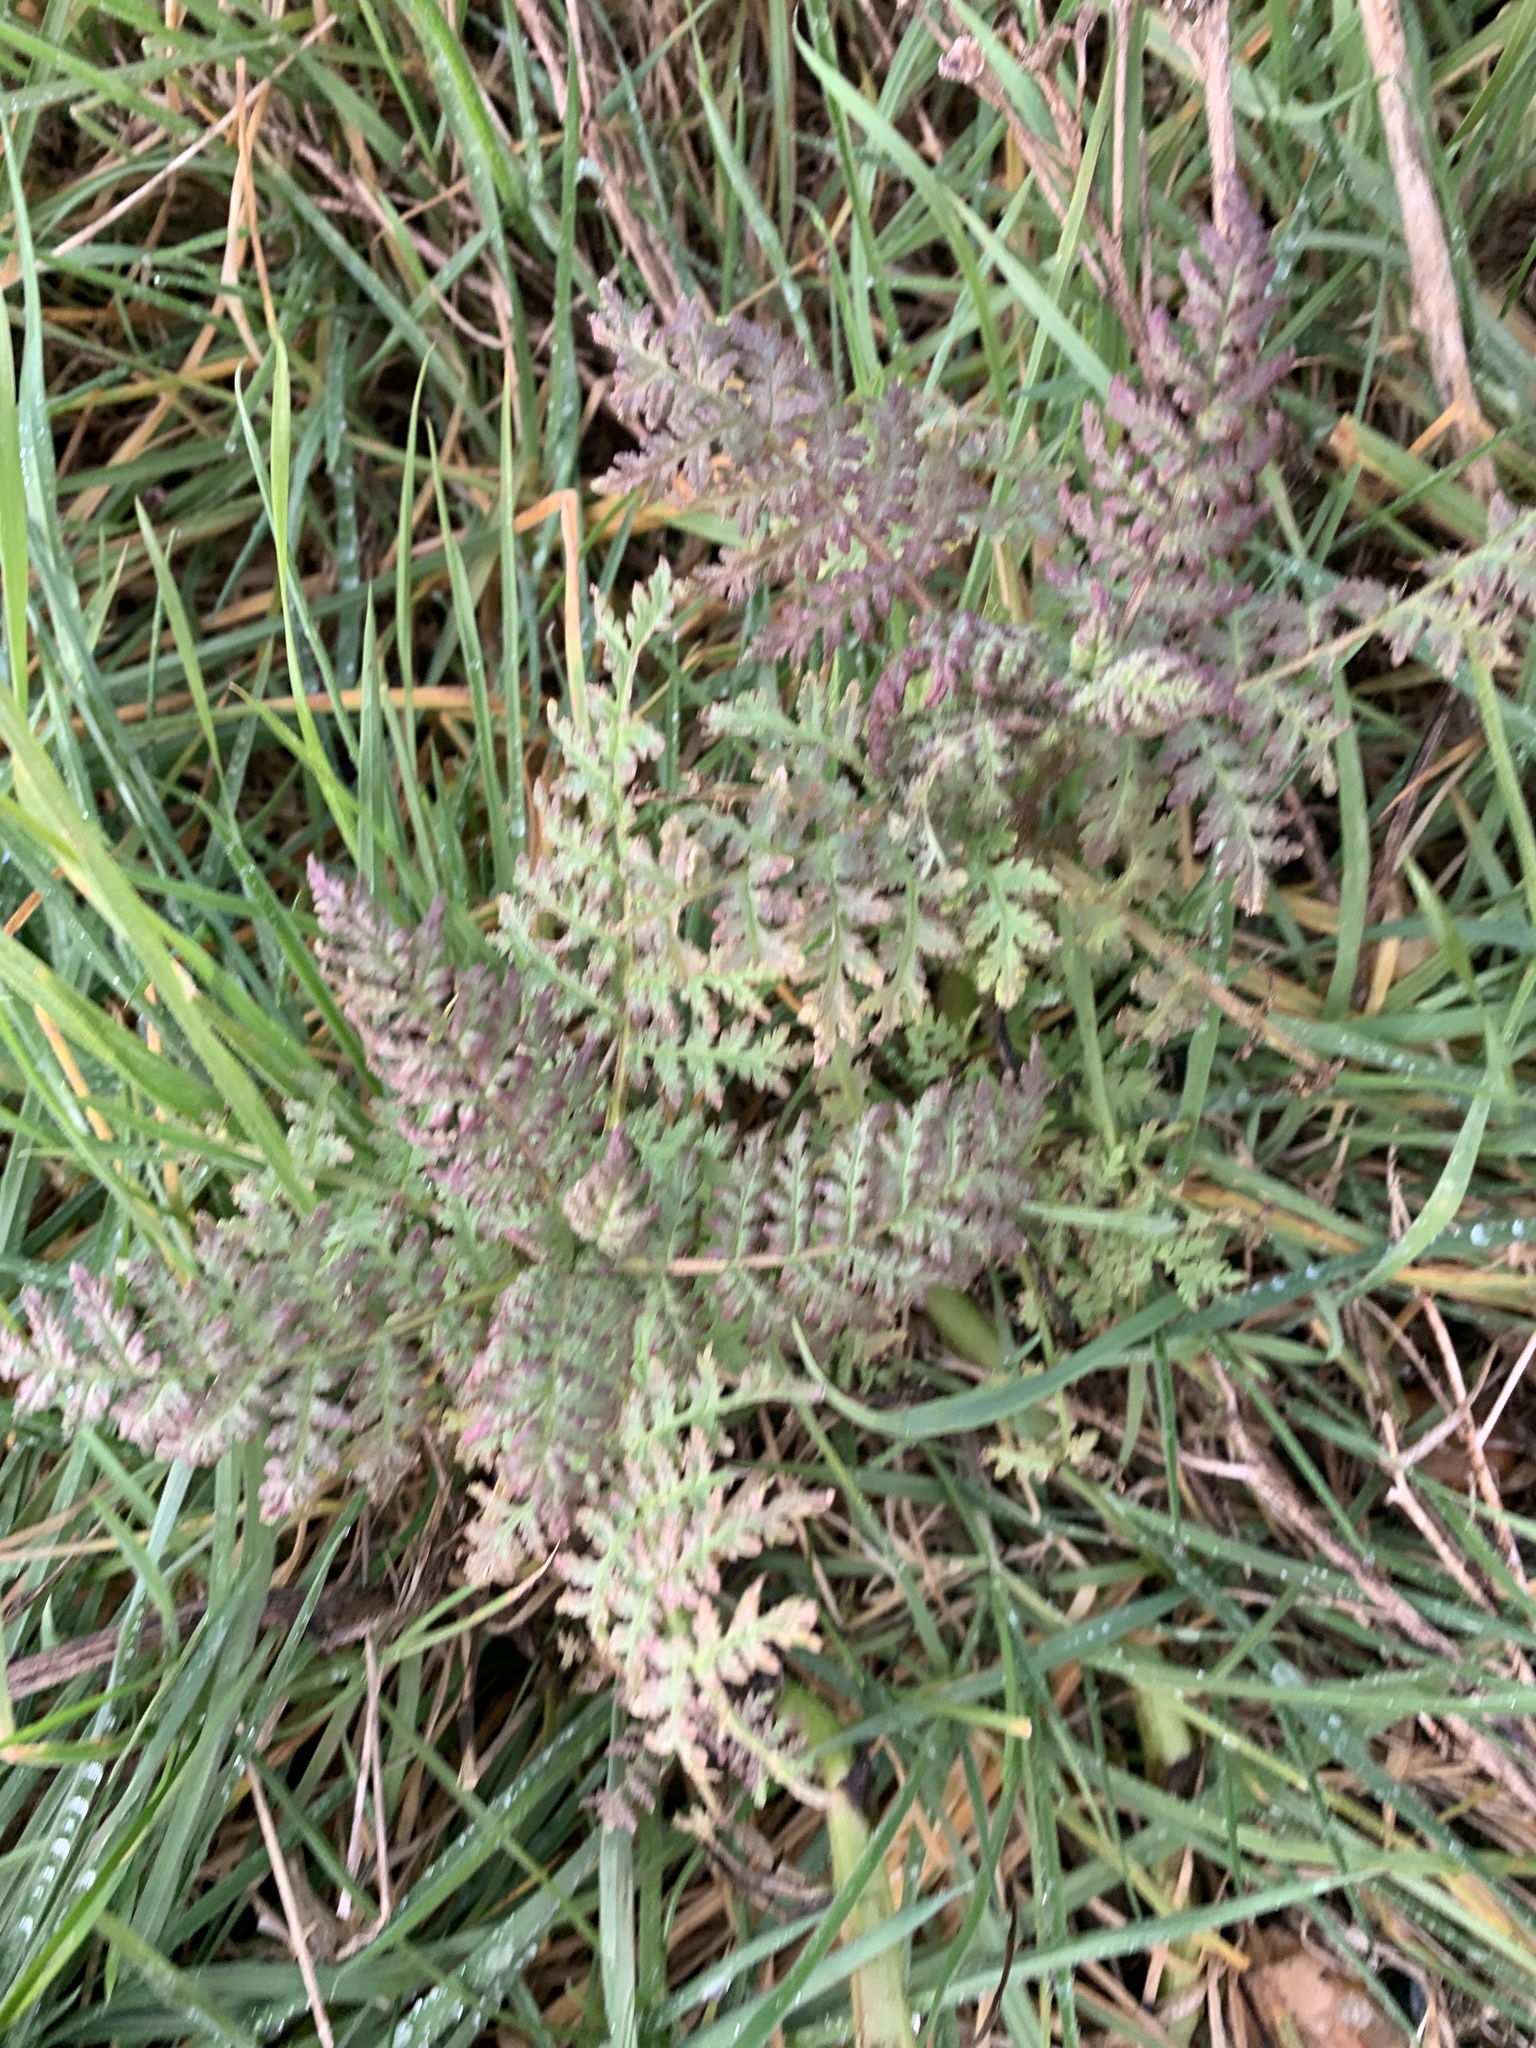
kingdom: Plantae
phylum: Tracheophyta
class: Magnoliopsida
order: Lamiales
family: Orobanchaceae
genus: Pedicularis
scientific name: Pedicularis palustris
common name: Marsh lousewort
